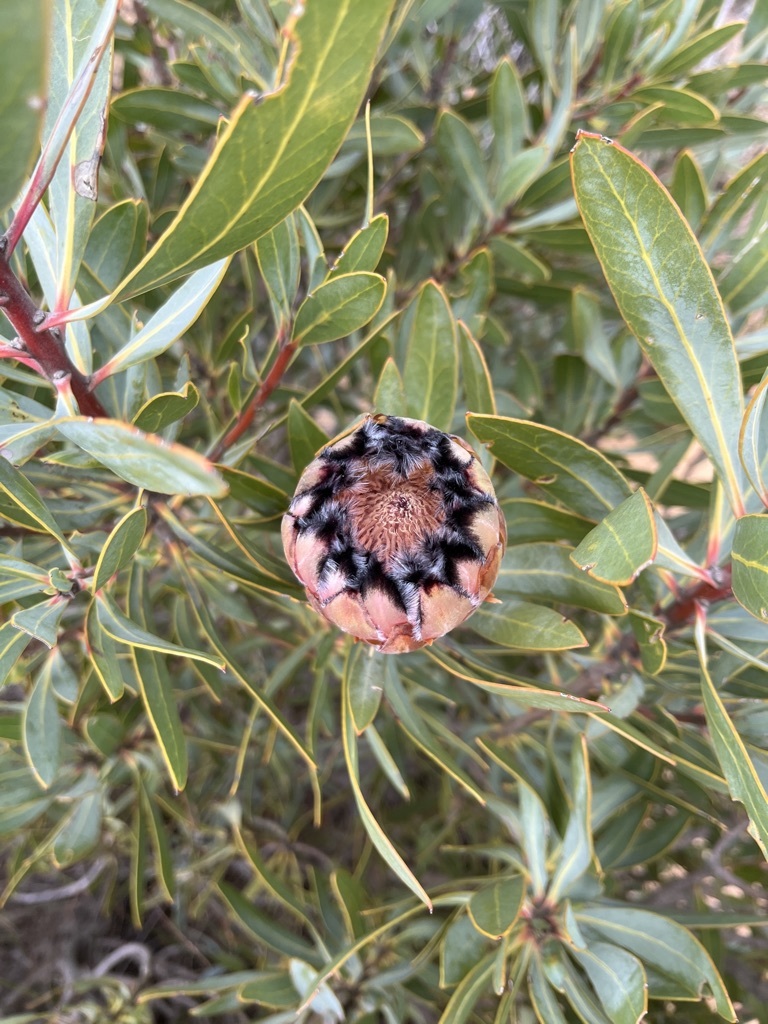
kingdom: Plantae
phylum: Tracheophyta
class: Magnoliopsida
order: Proteales
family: Proteaceae
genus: Protea
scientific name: Protea laurifolia
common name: Grey-leaf sugarbsh
